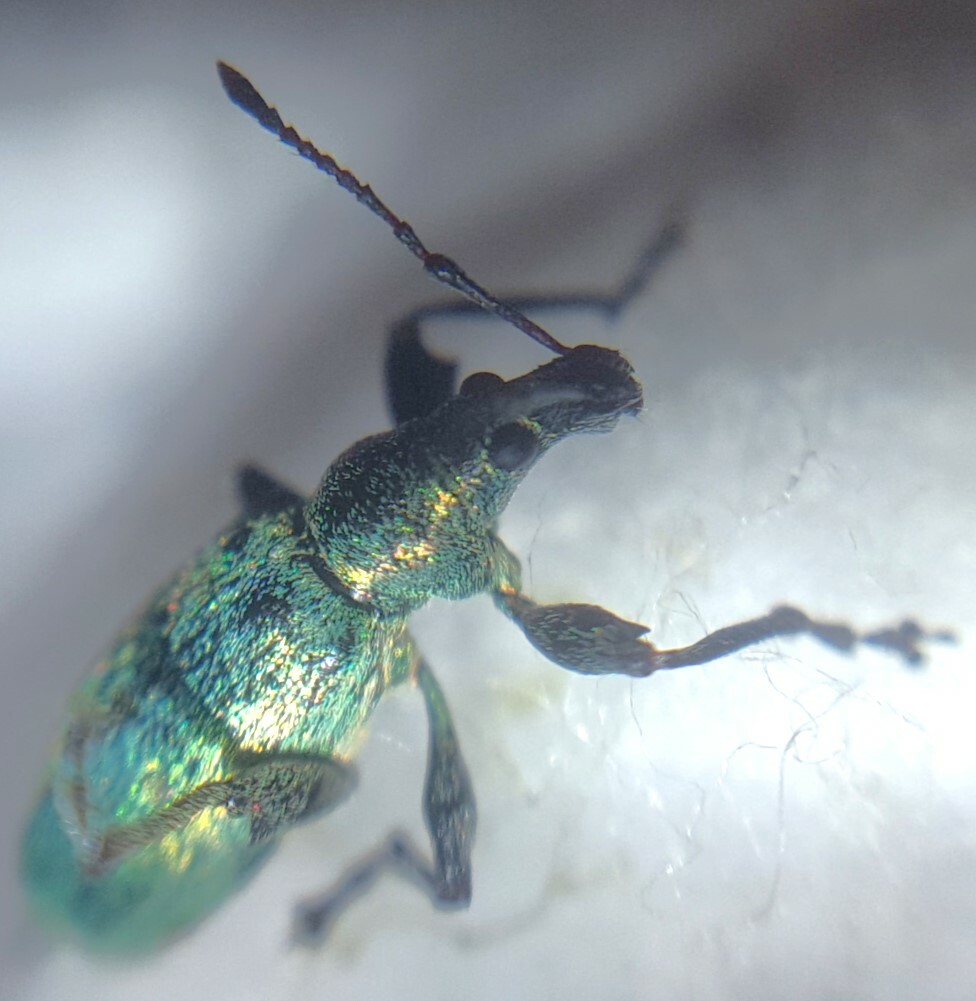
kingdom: Animalia
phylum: Arthropoda
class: Insecta
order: Coleoptera
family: Curculionidae
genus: Phyllobius
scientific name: Phyllobius pomaceus
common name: Green nettle weevil
